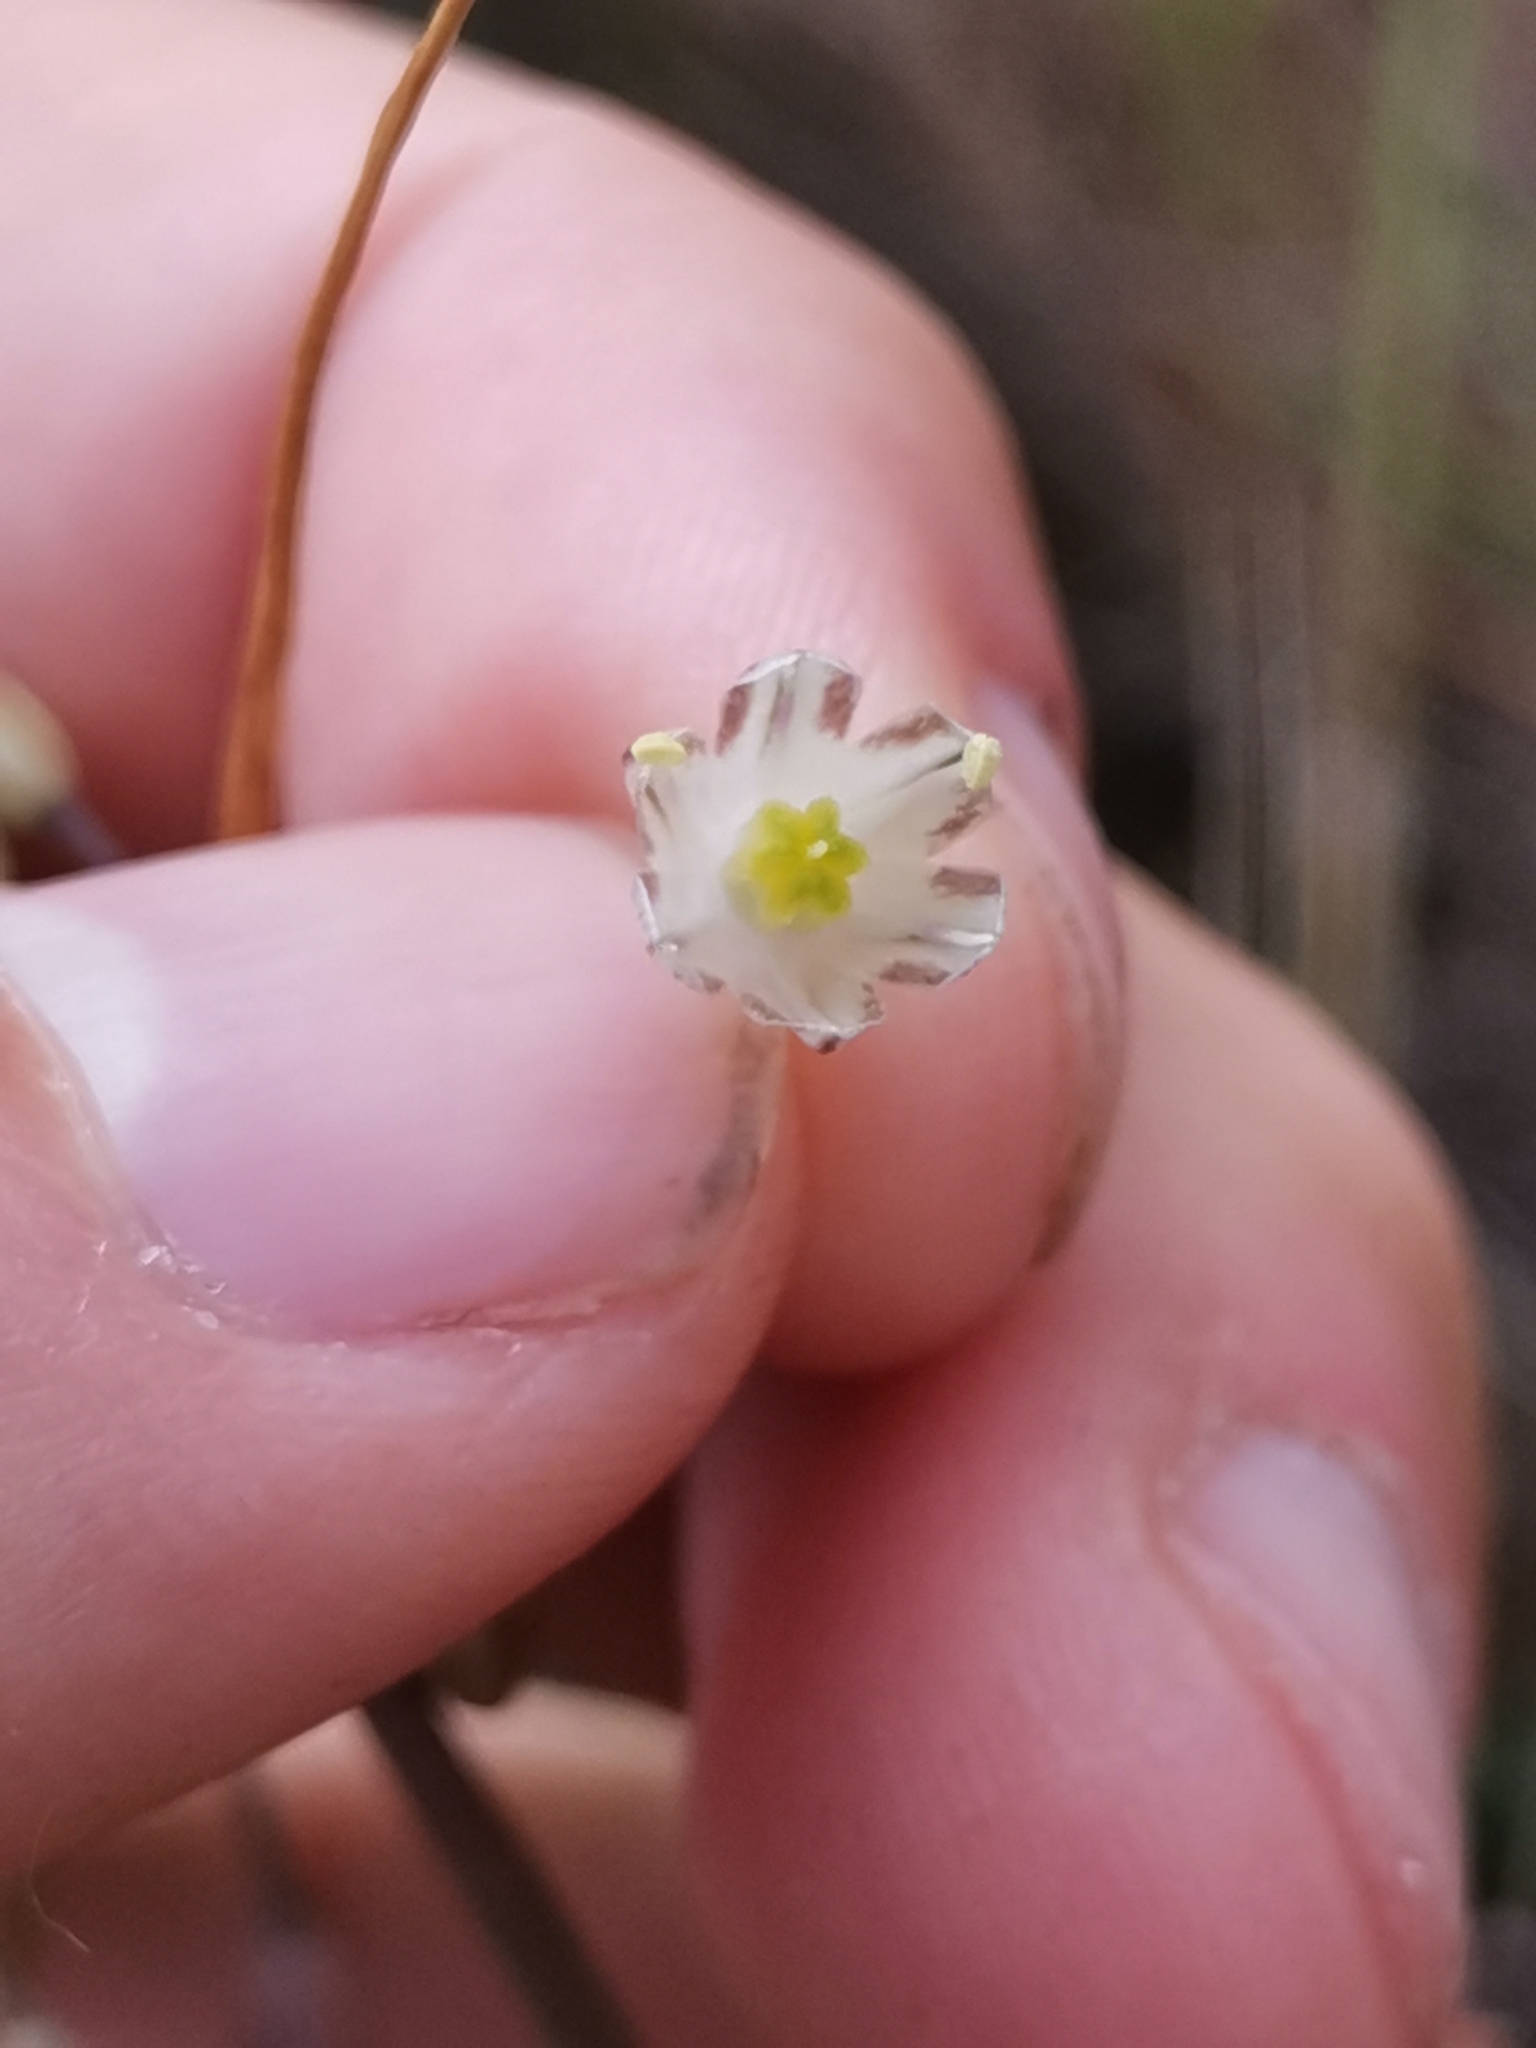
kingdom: Plantae
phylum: Tracheophyta
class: Liliopsida
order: Asparagales
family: Amaryllidaceae
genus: Allium
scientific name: Allium oleraceum
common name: Field garlic
